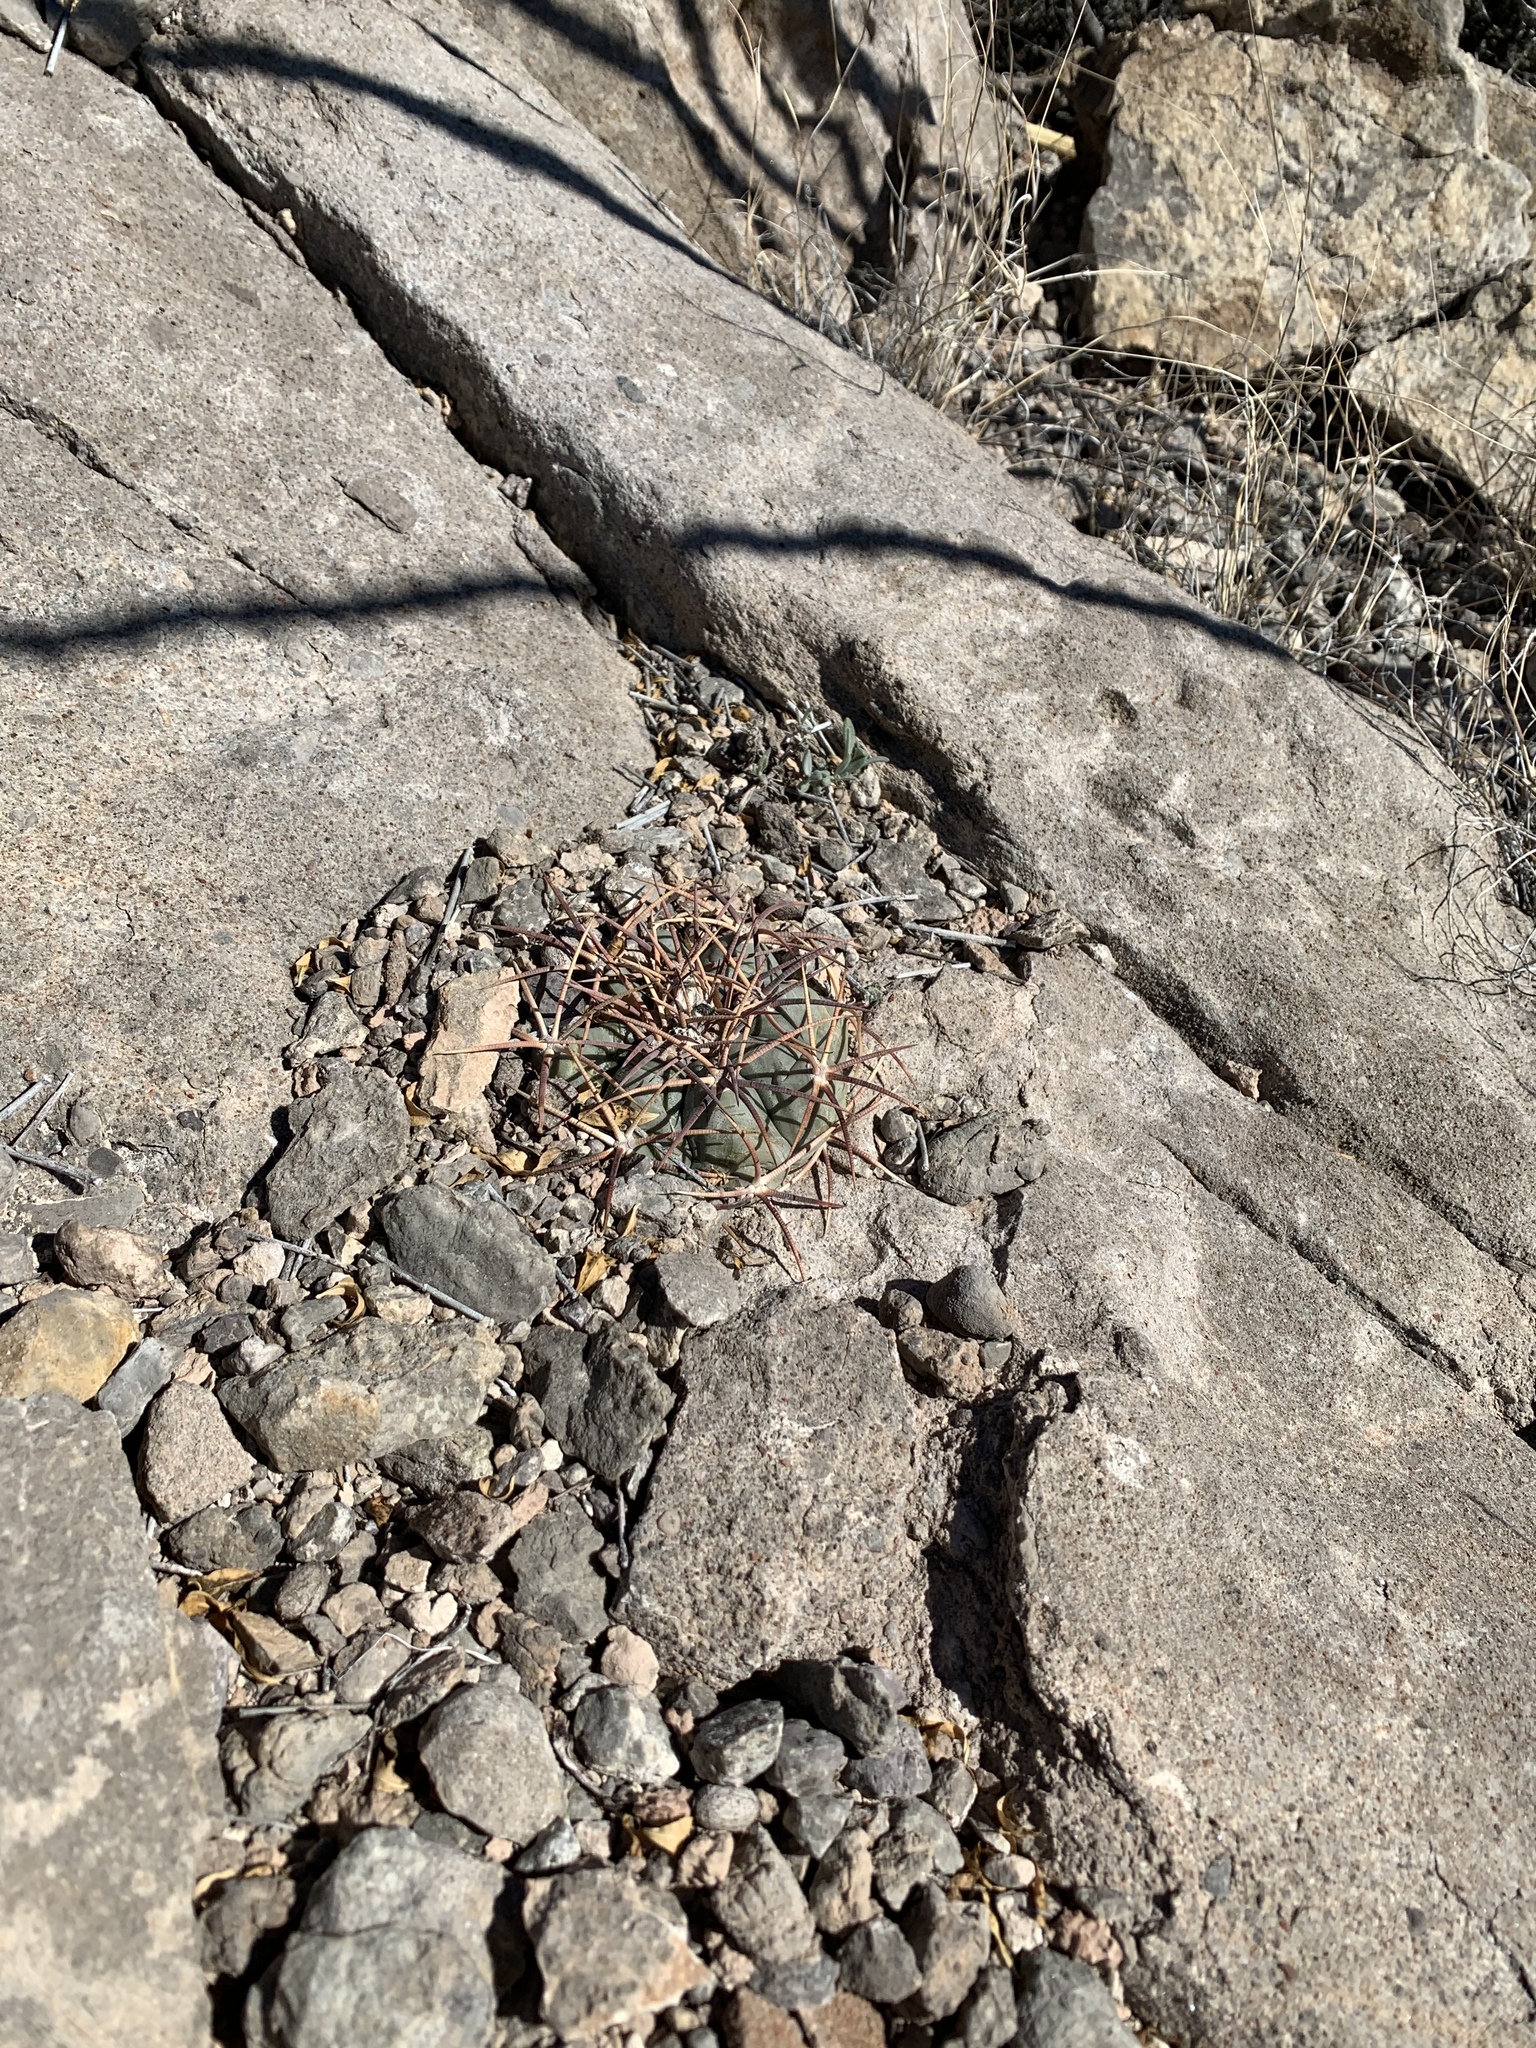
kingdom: Plantae
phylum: Tracheophyta
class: Magnoliopsida
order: Caryophyllales
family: Cactaceae
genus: Echinocactus
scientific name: Echinocactus horizonthalonius
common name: Devilshead
